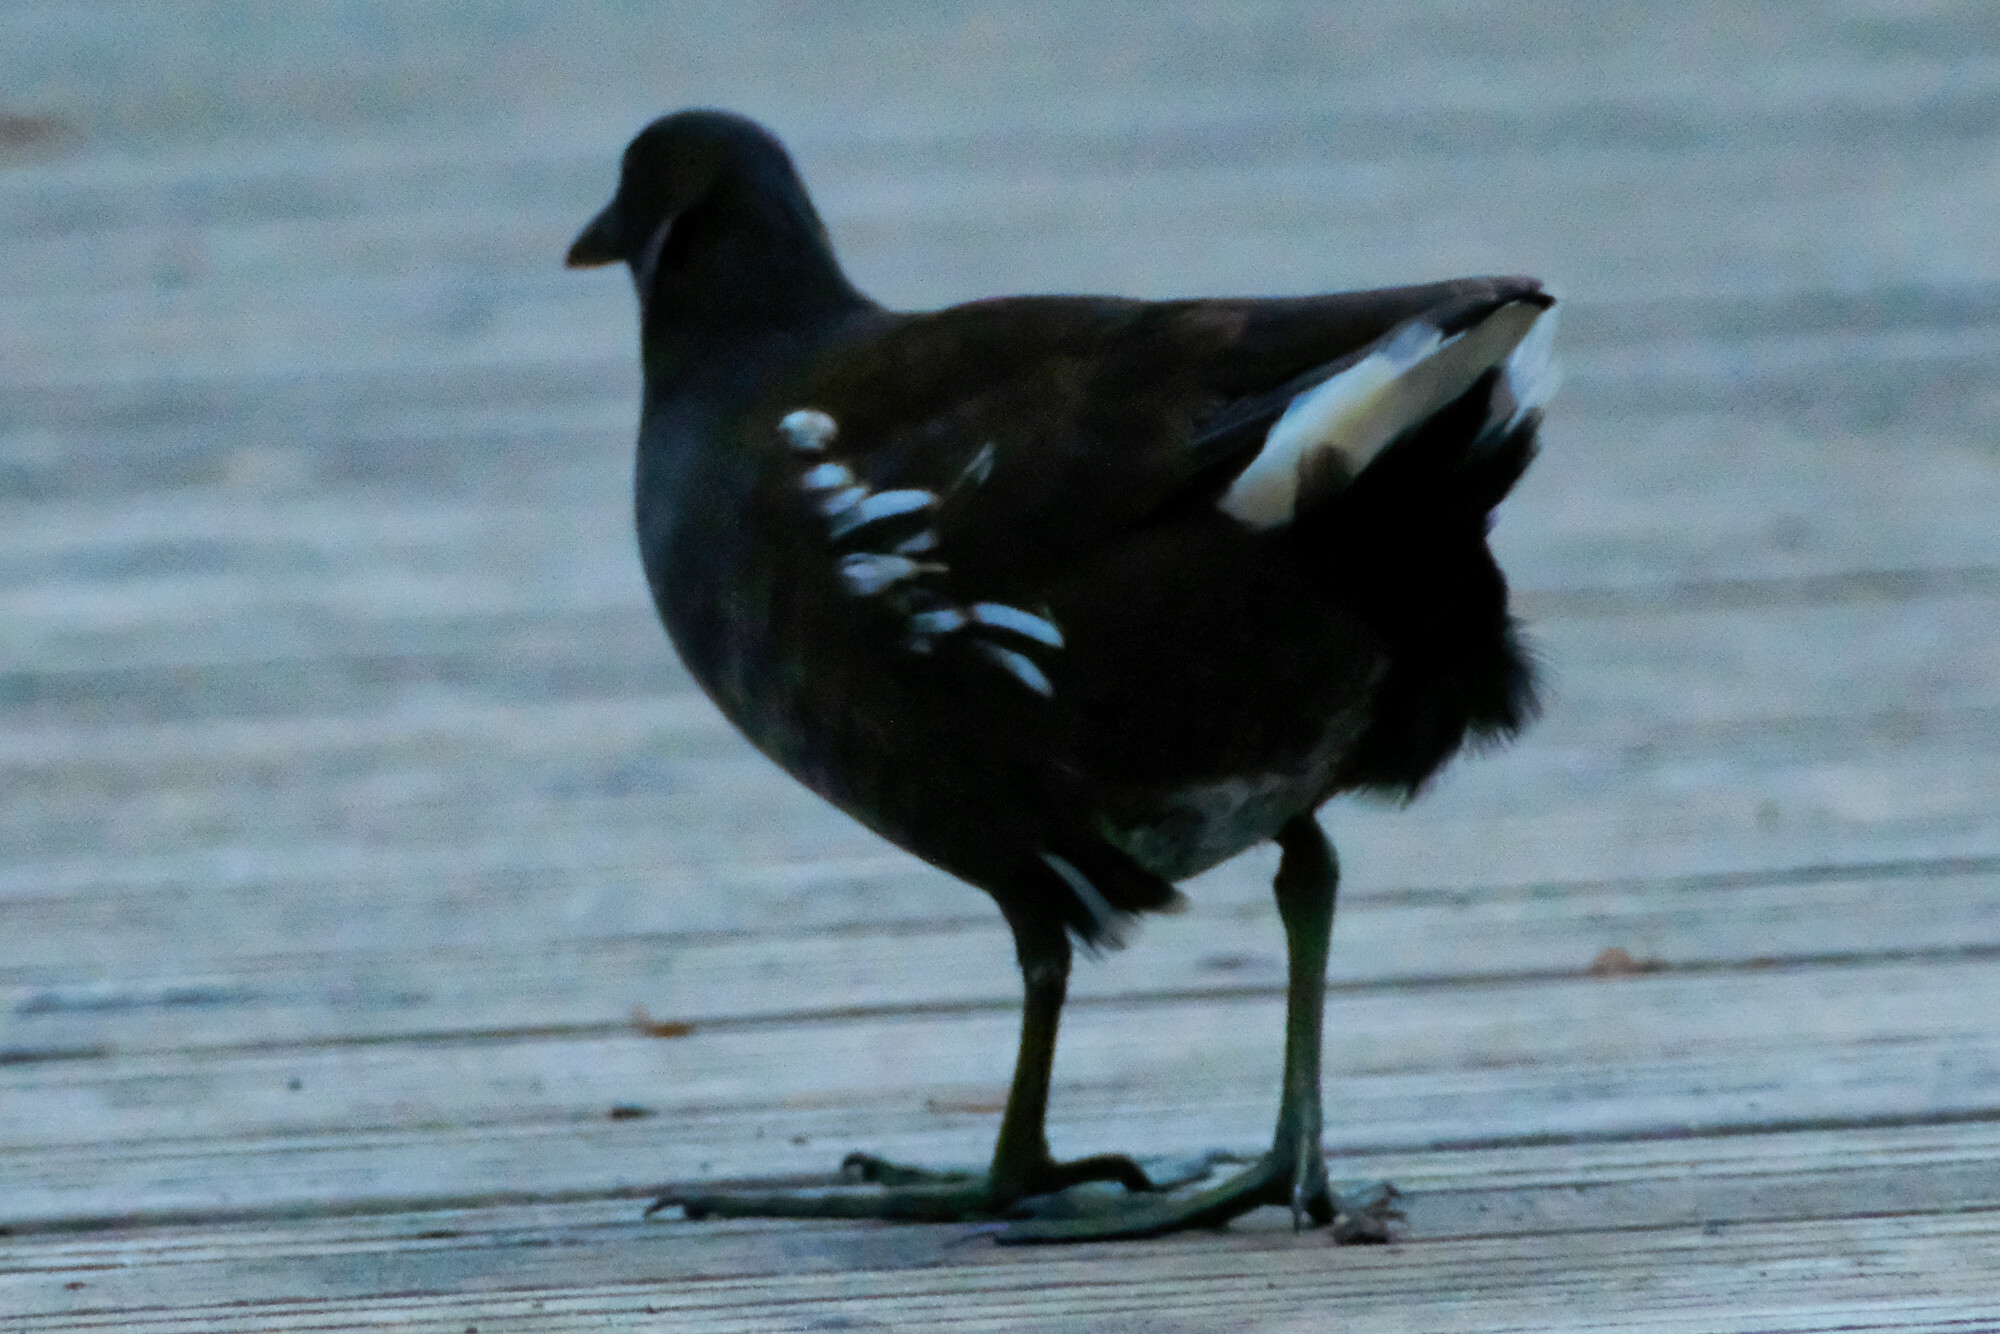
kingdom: Animalia
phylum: Chordata
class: Aves
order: Gruiformes
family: Rallidae
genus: Gallinula
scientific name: Gallinula chloropus
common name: Common moorhen
